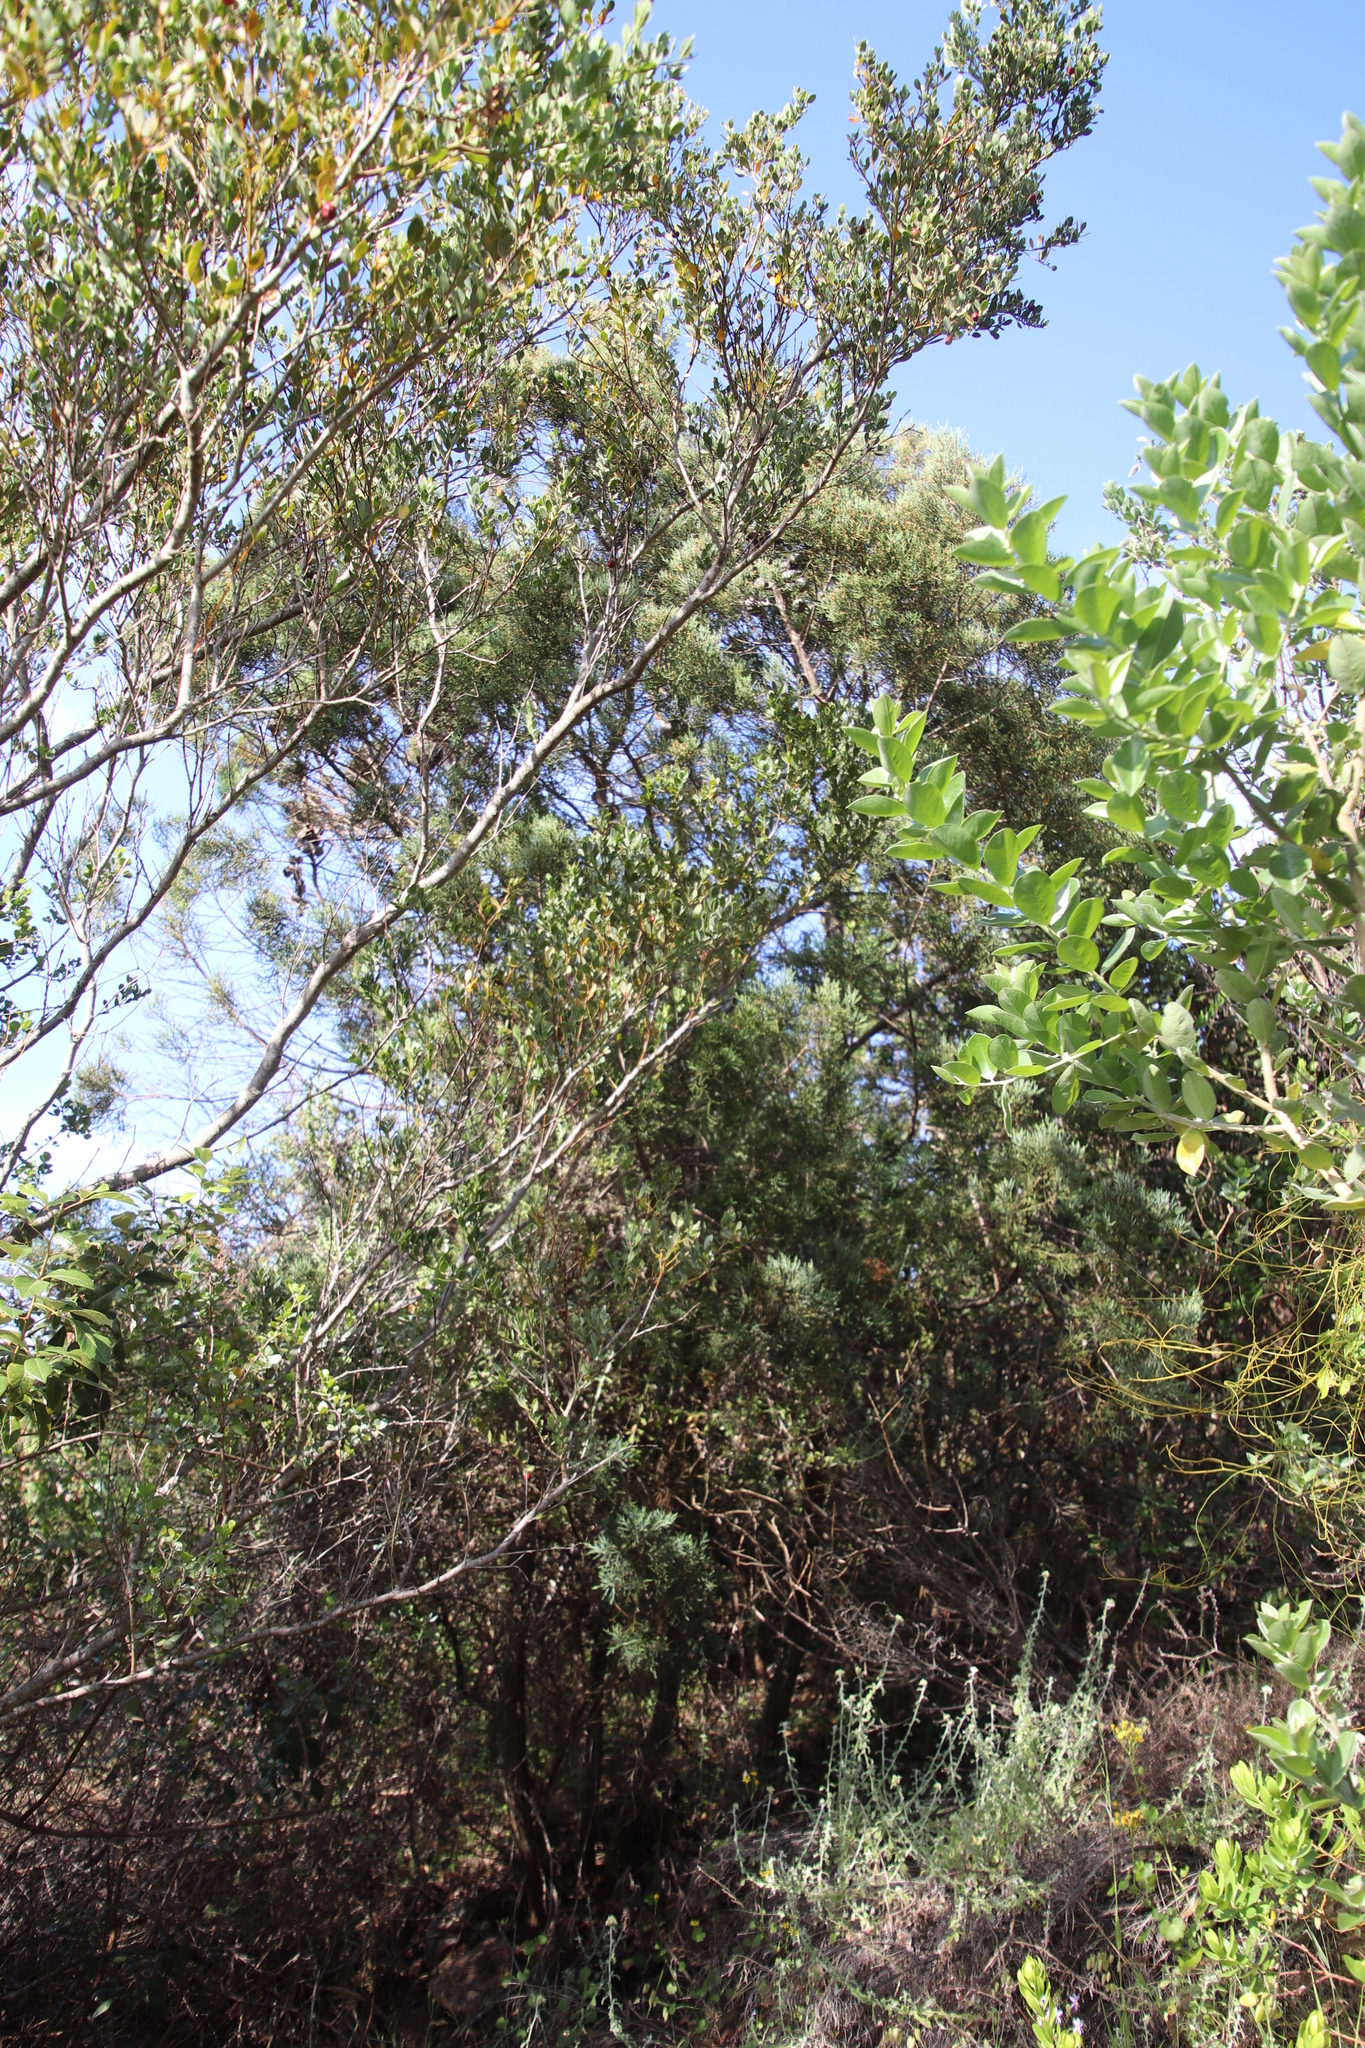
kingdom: Plantae
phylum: Tracheophyta
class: Pinopsida
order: Pinales
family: Cupressaceae
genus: Widdringtonia
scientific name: Widdringtonia nodiflora
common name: Cape cypress
